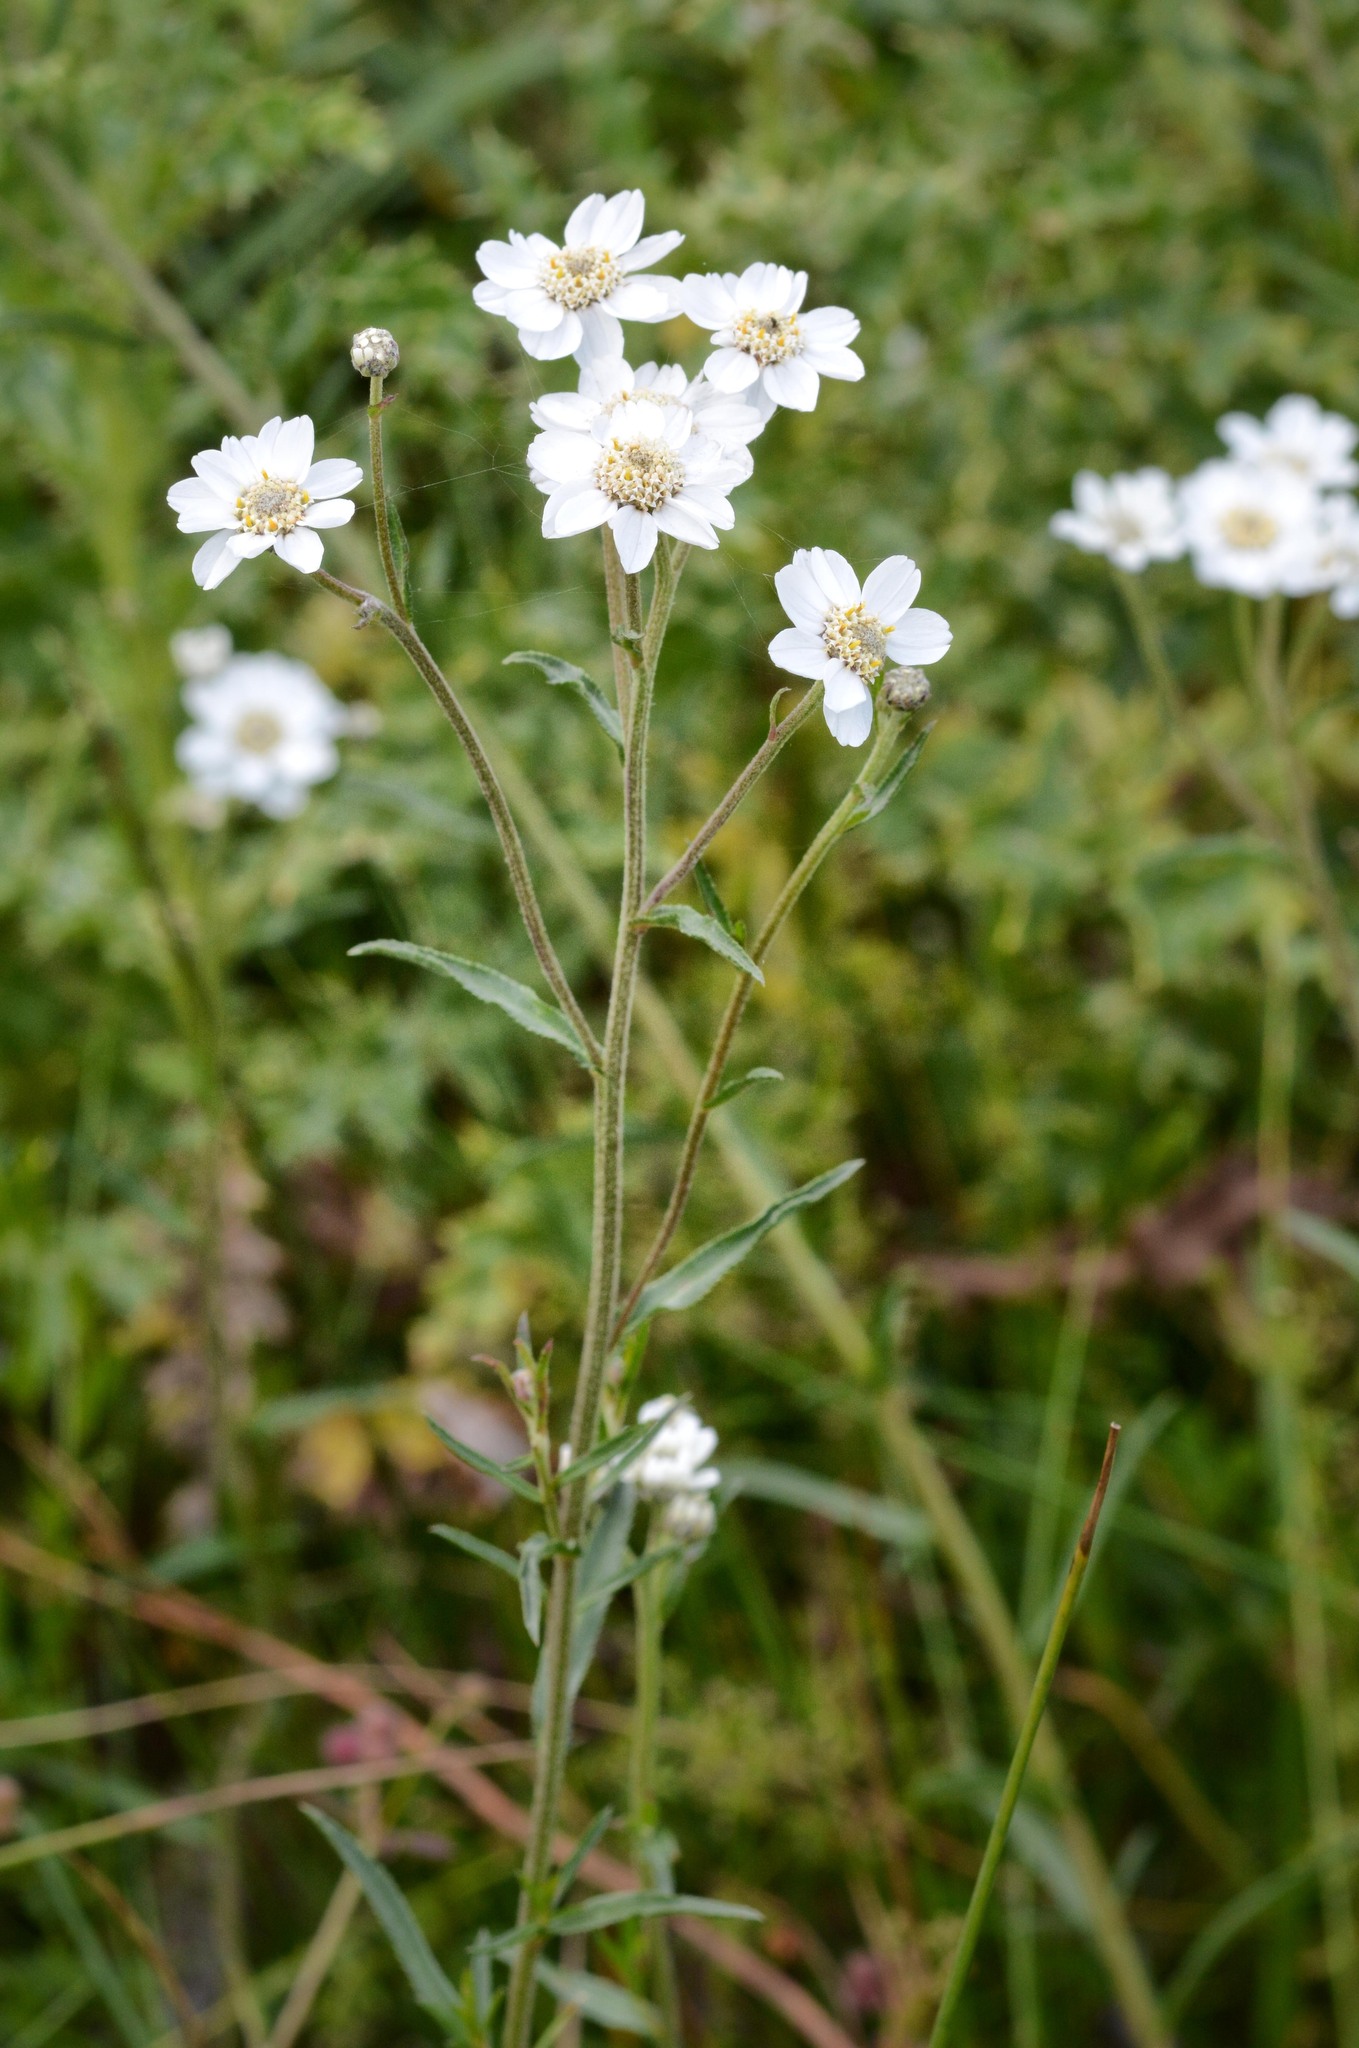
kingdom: Plantae
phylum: Tracheophyta
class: Magnoliopsida
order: Asterales
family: Asteraceae
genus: Achillea
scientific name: Achillea ptarmica
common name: Sneezeweed
